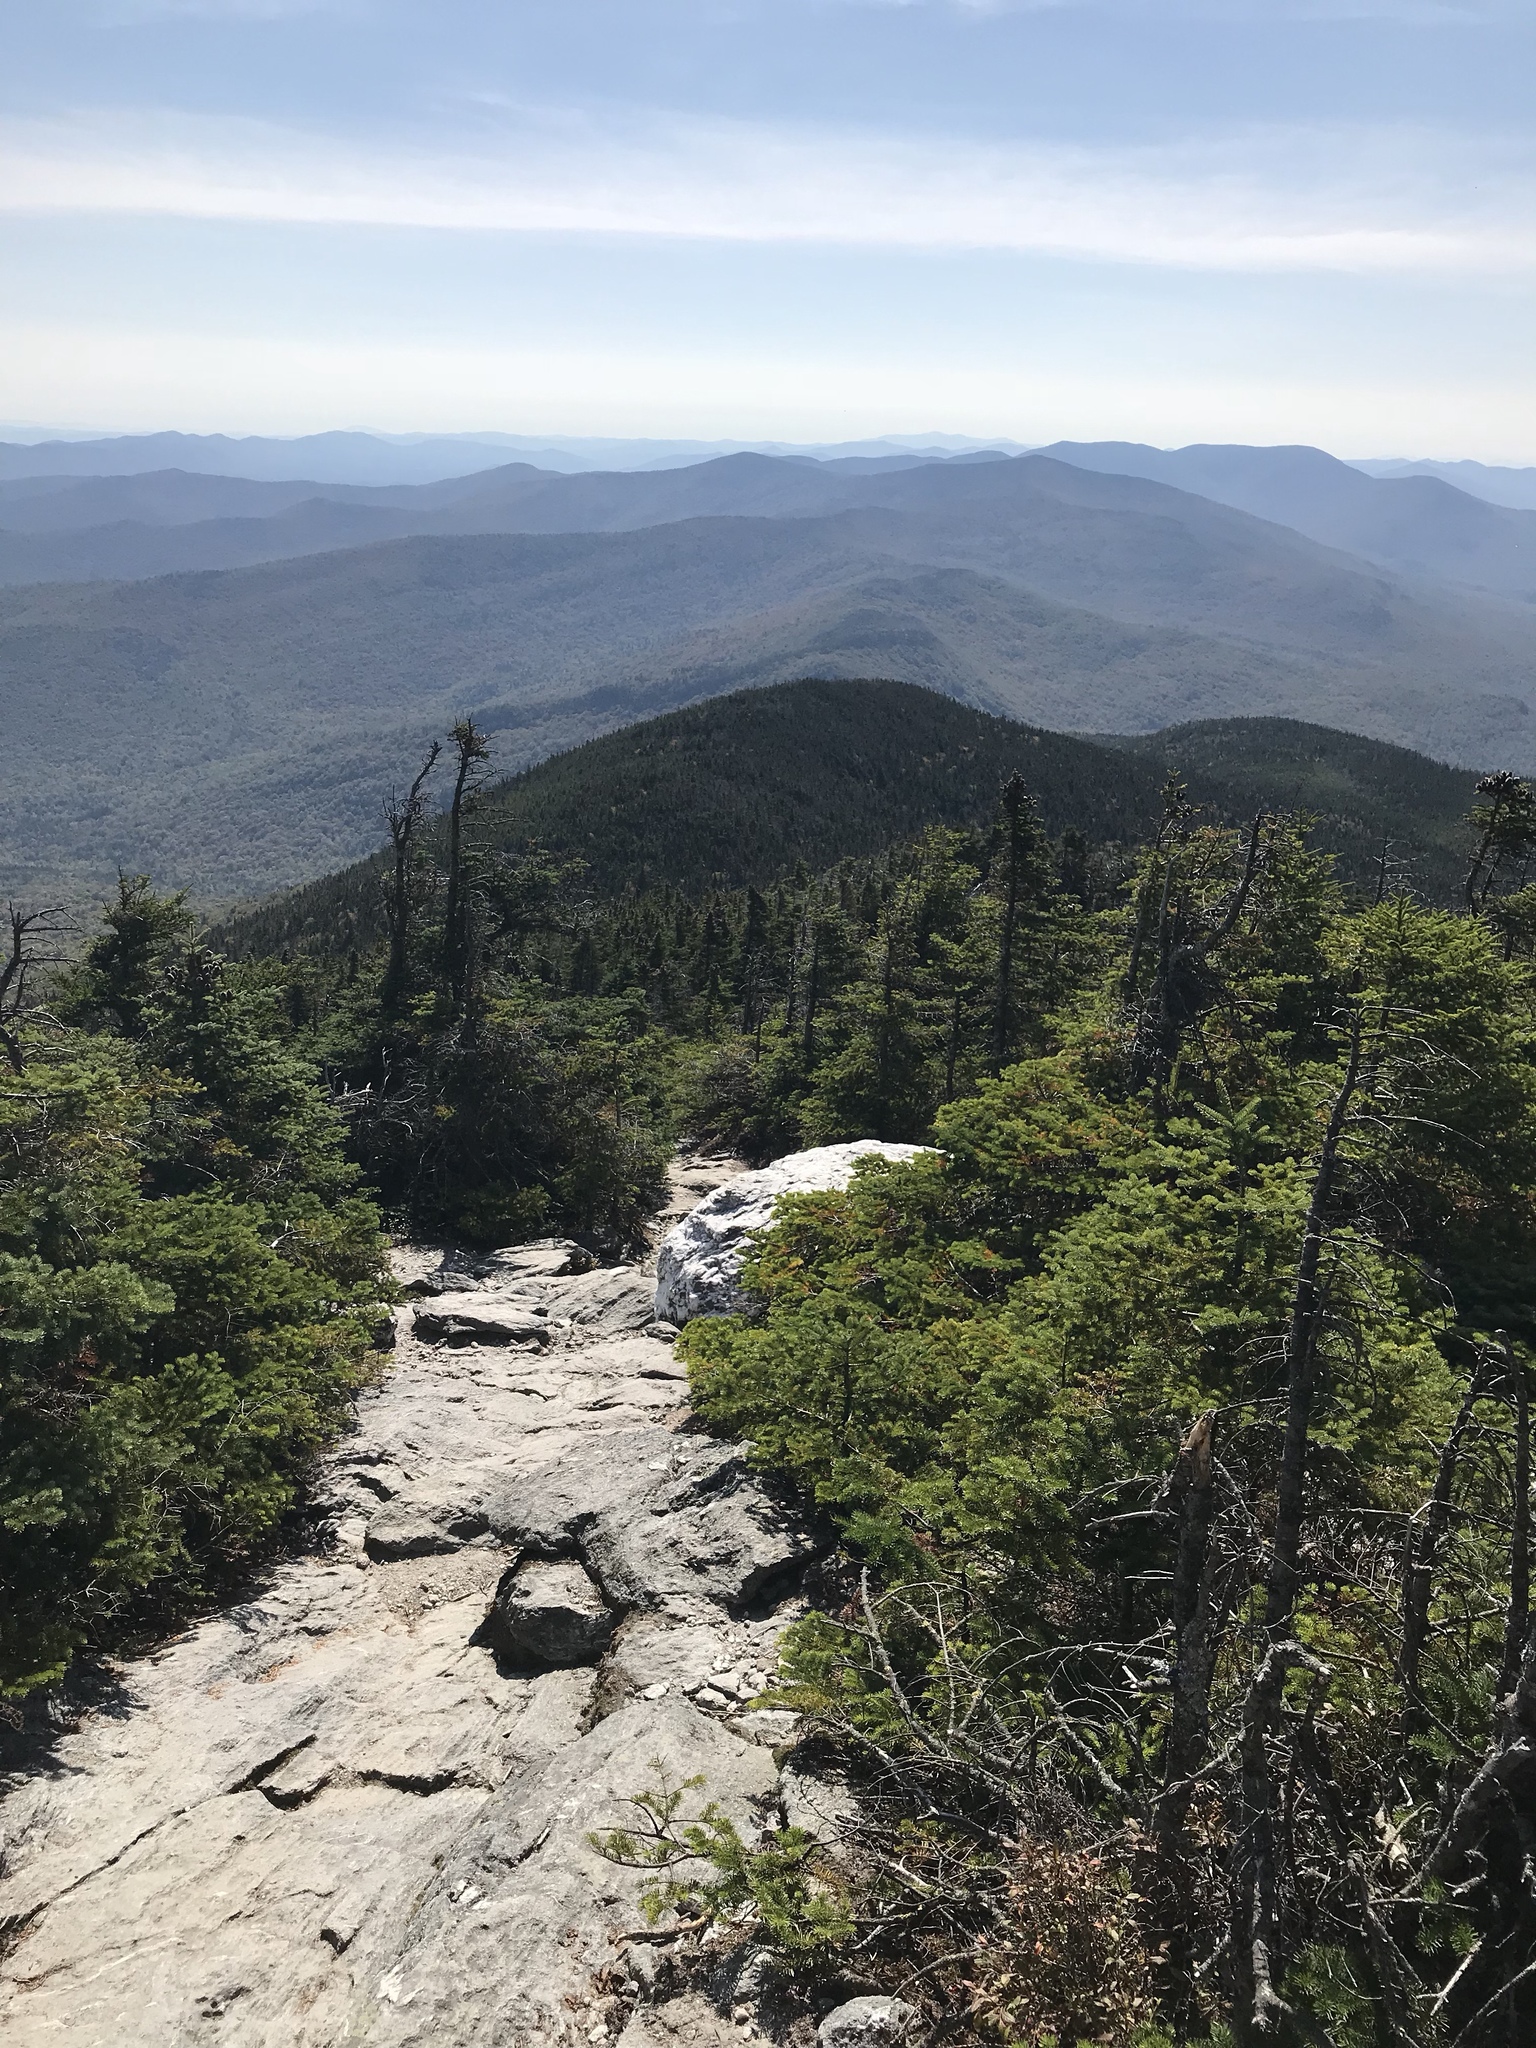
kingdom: Plantae
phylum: Tracheophyta
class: Pinopsida
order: Pinales
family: Pinaceae
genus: Abies
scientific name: Abies balsamea
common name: Balsam fir
